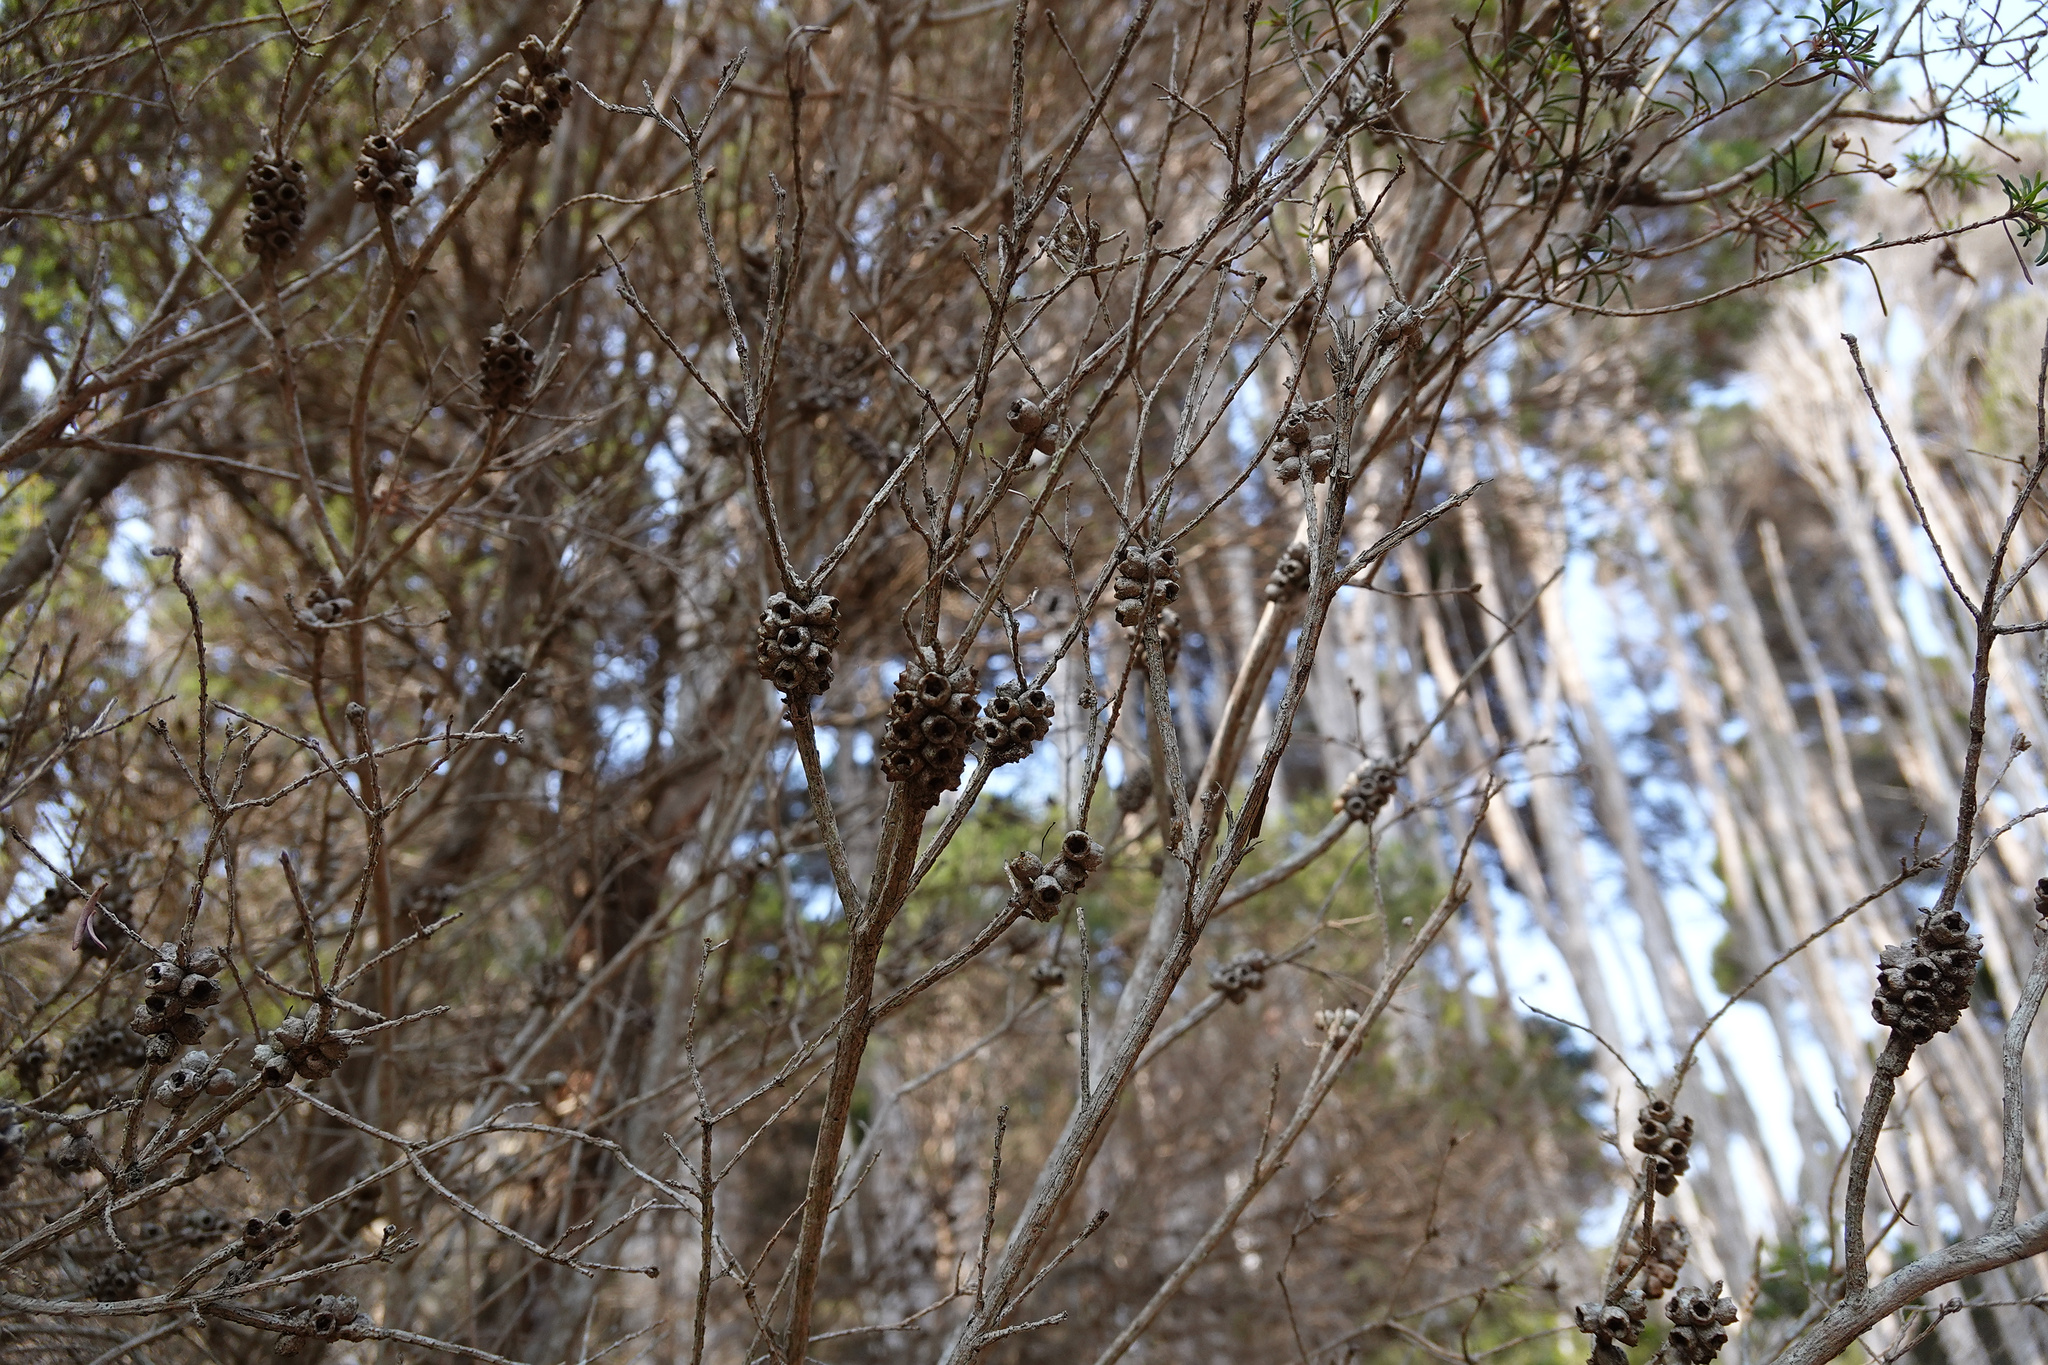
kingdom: Plantae
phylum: Tracheophyta
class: Magnoliopsida
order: Myrtales
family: Myrtaceae
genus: Melaleuca
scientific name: Melaleuca ericifolia
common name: Paperbark teatree
